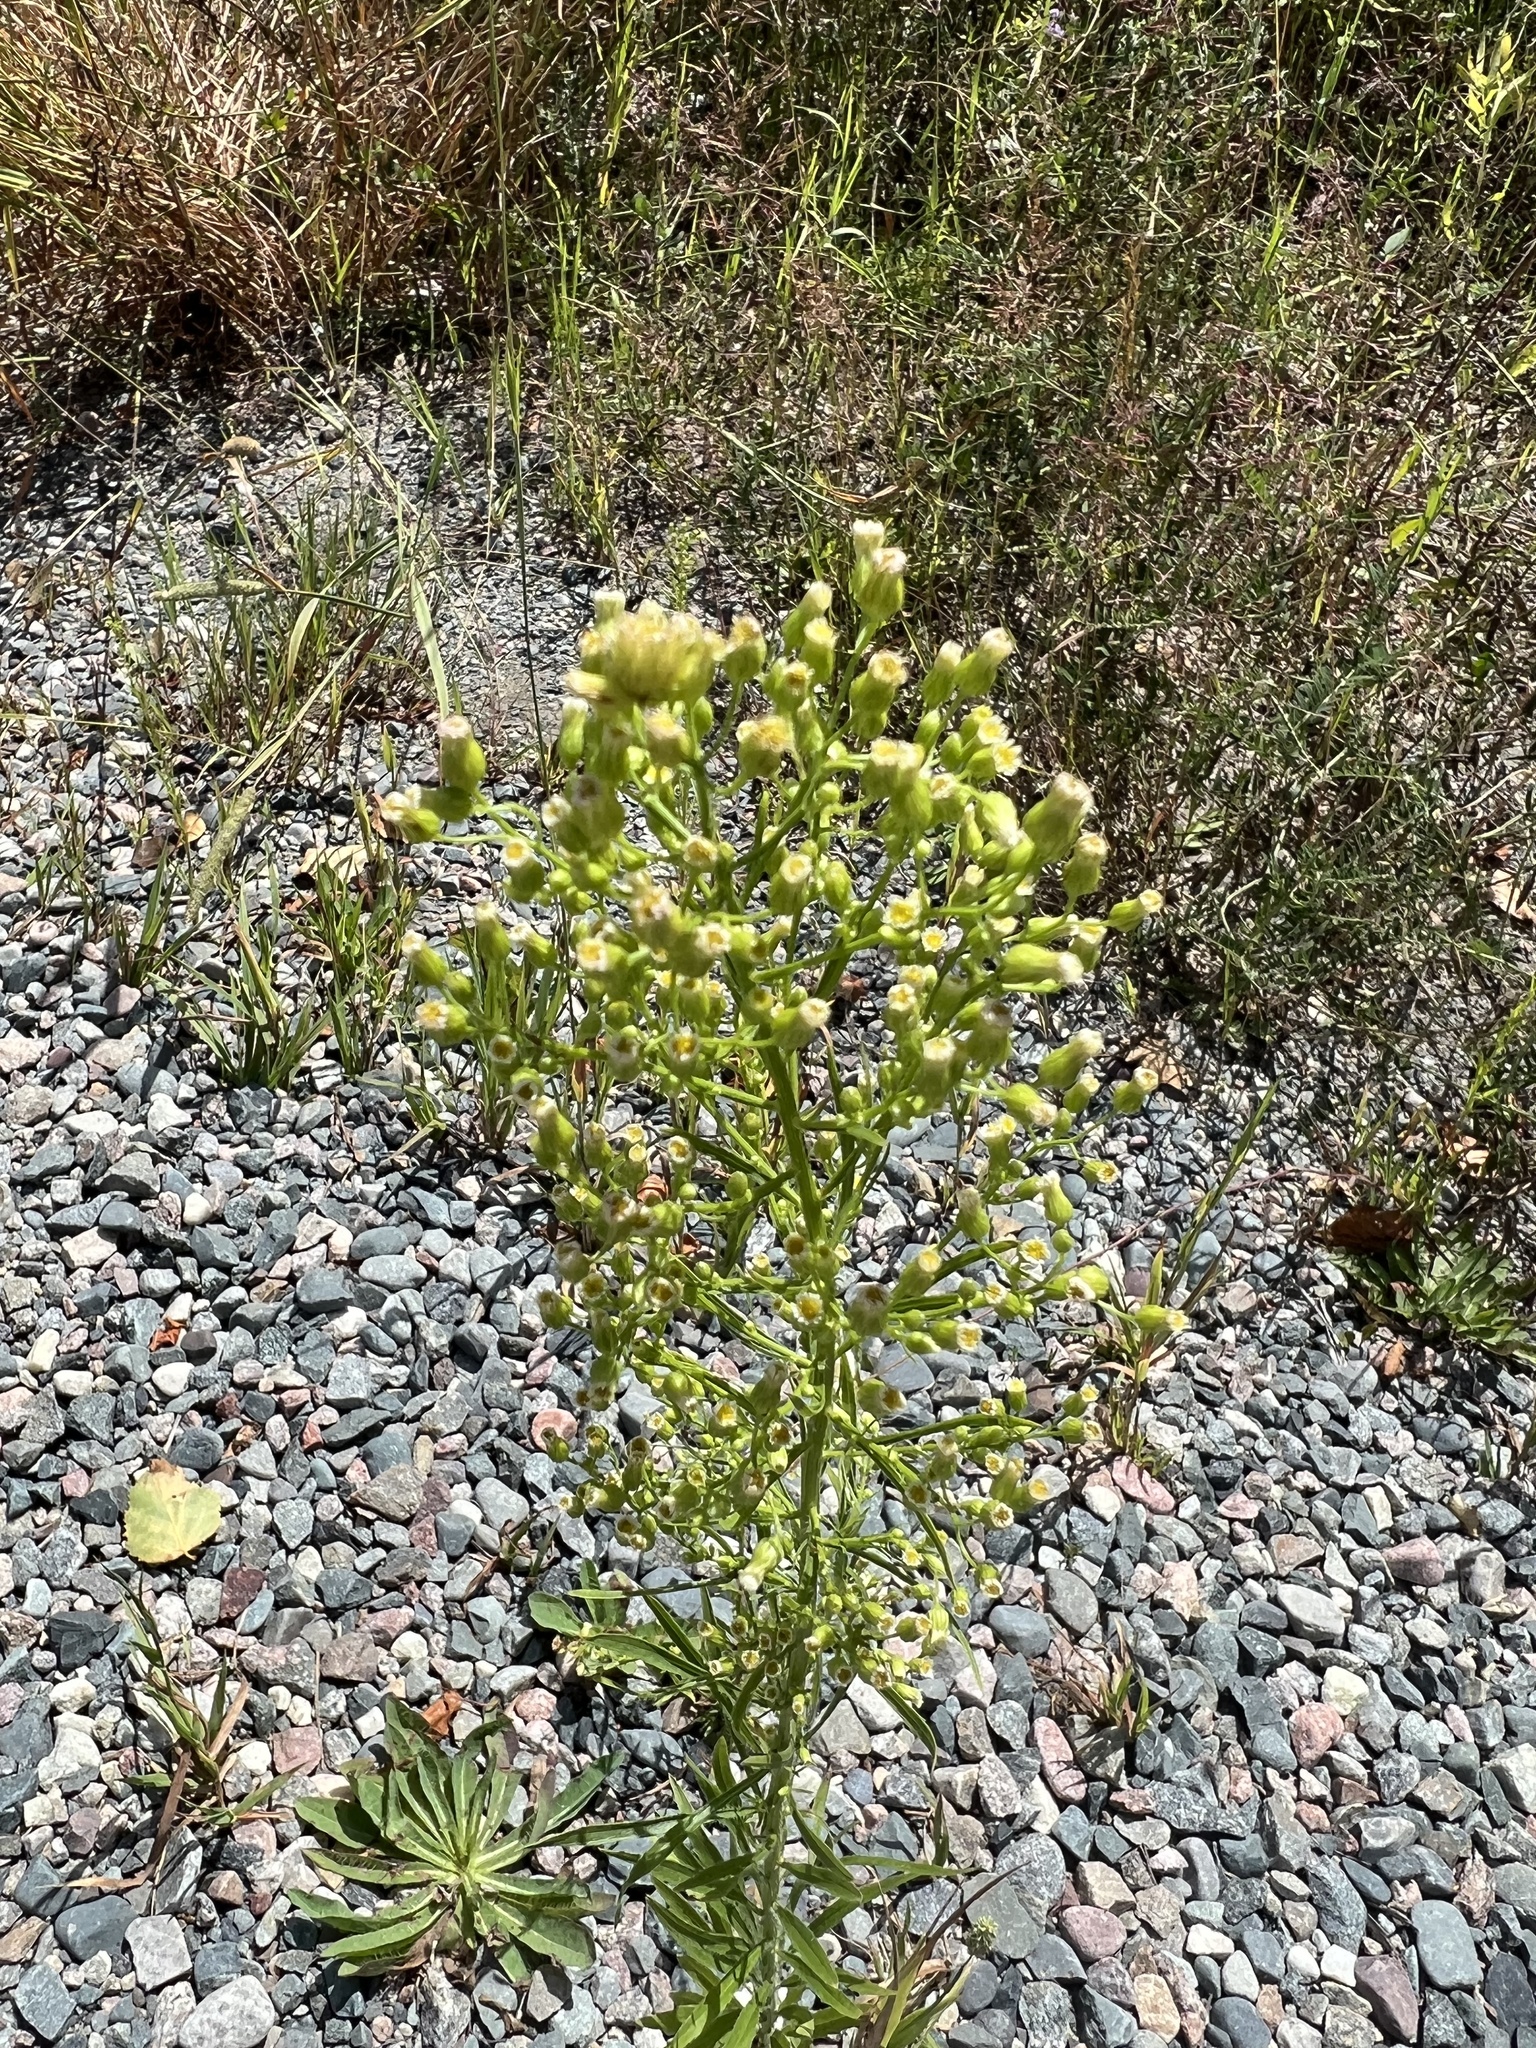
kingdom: Plantae
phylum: Tracheophyta
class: Magnoliopsida
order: Asterales
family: Asteraceae
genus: Erigeron
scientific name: Erigeron canadensis
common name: Canadian fleabane
